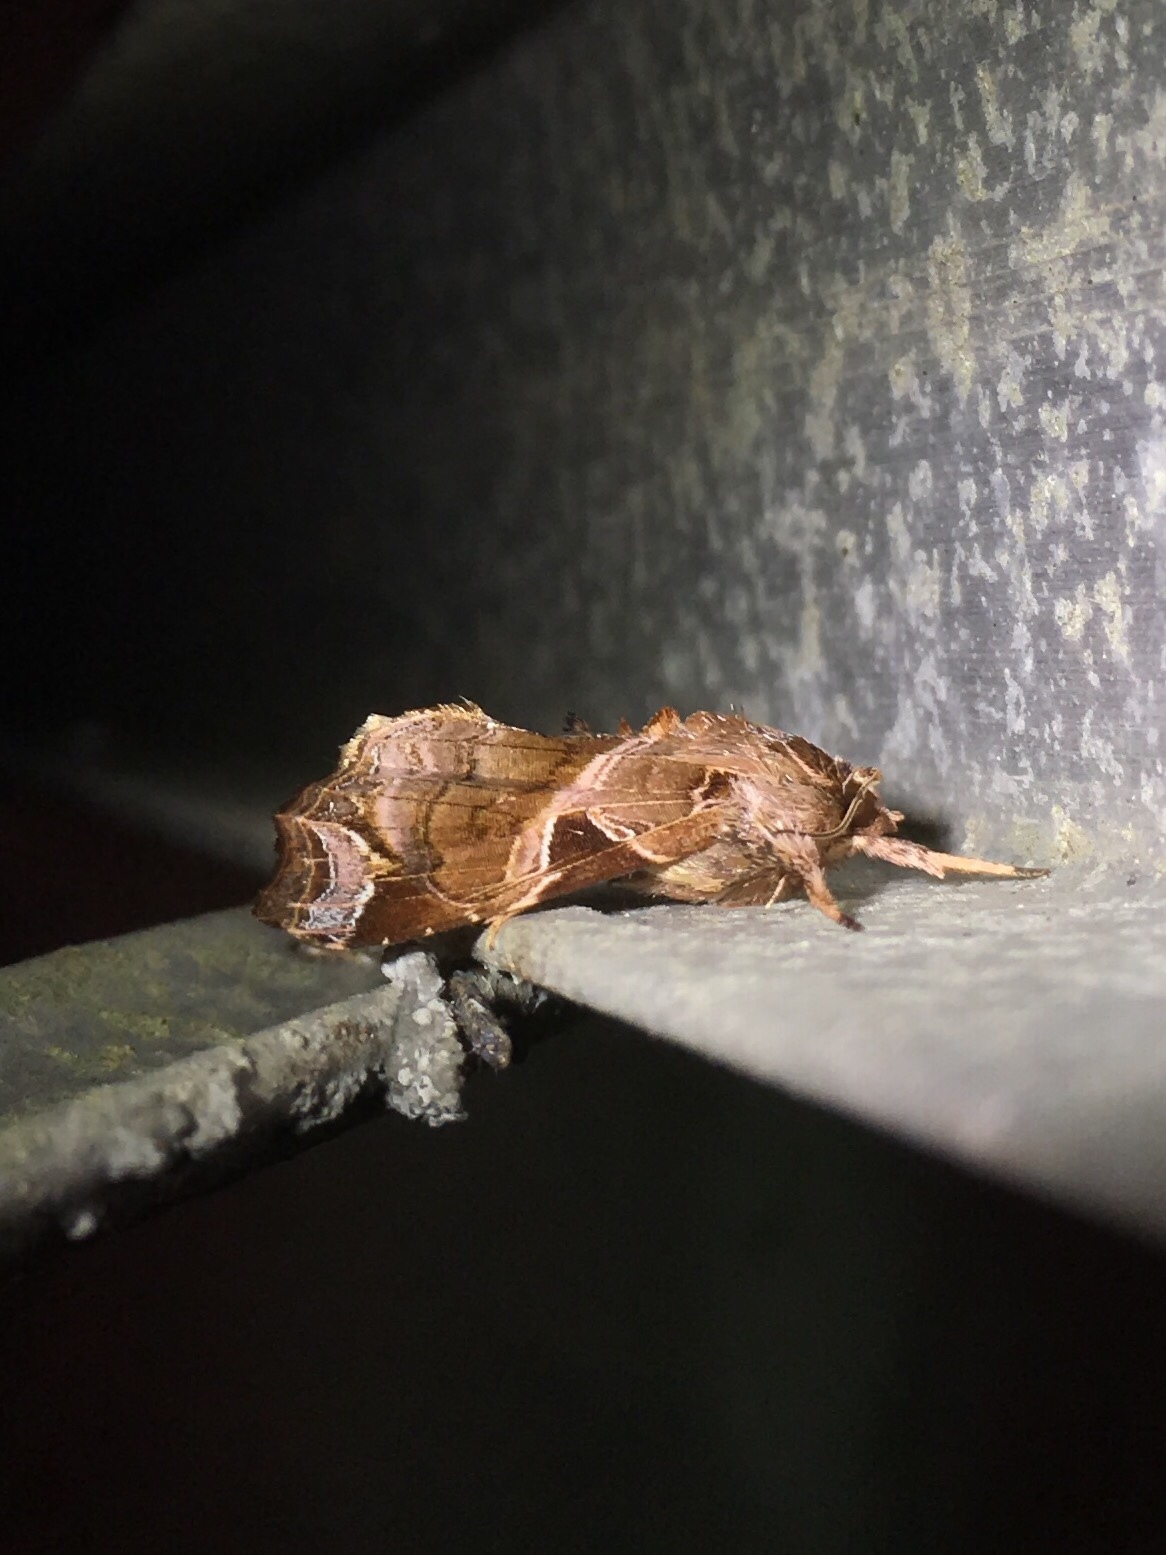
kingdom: Animalia
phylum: Arthropoda
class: Insecta
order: Lepidoptera
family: Noctuidae
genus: Callopistria
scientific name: Callopistria floridensis
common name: Florida fern moth
